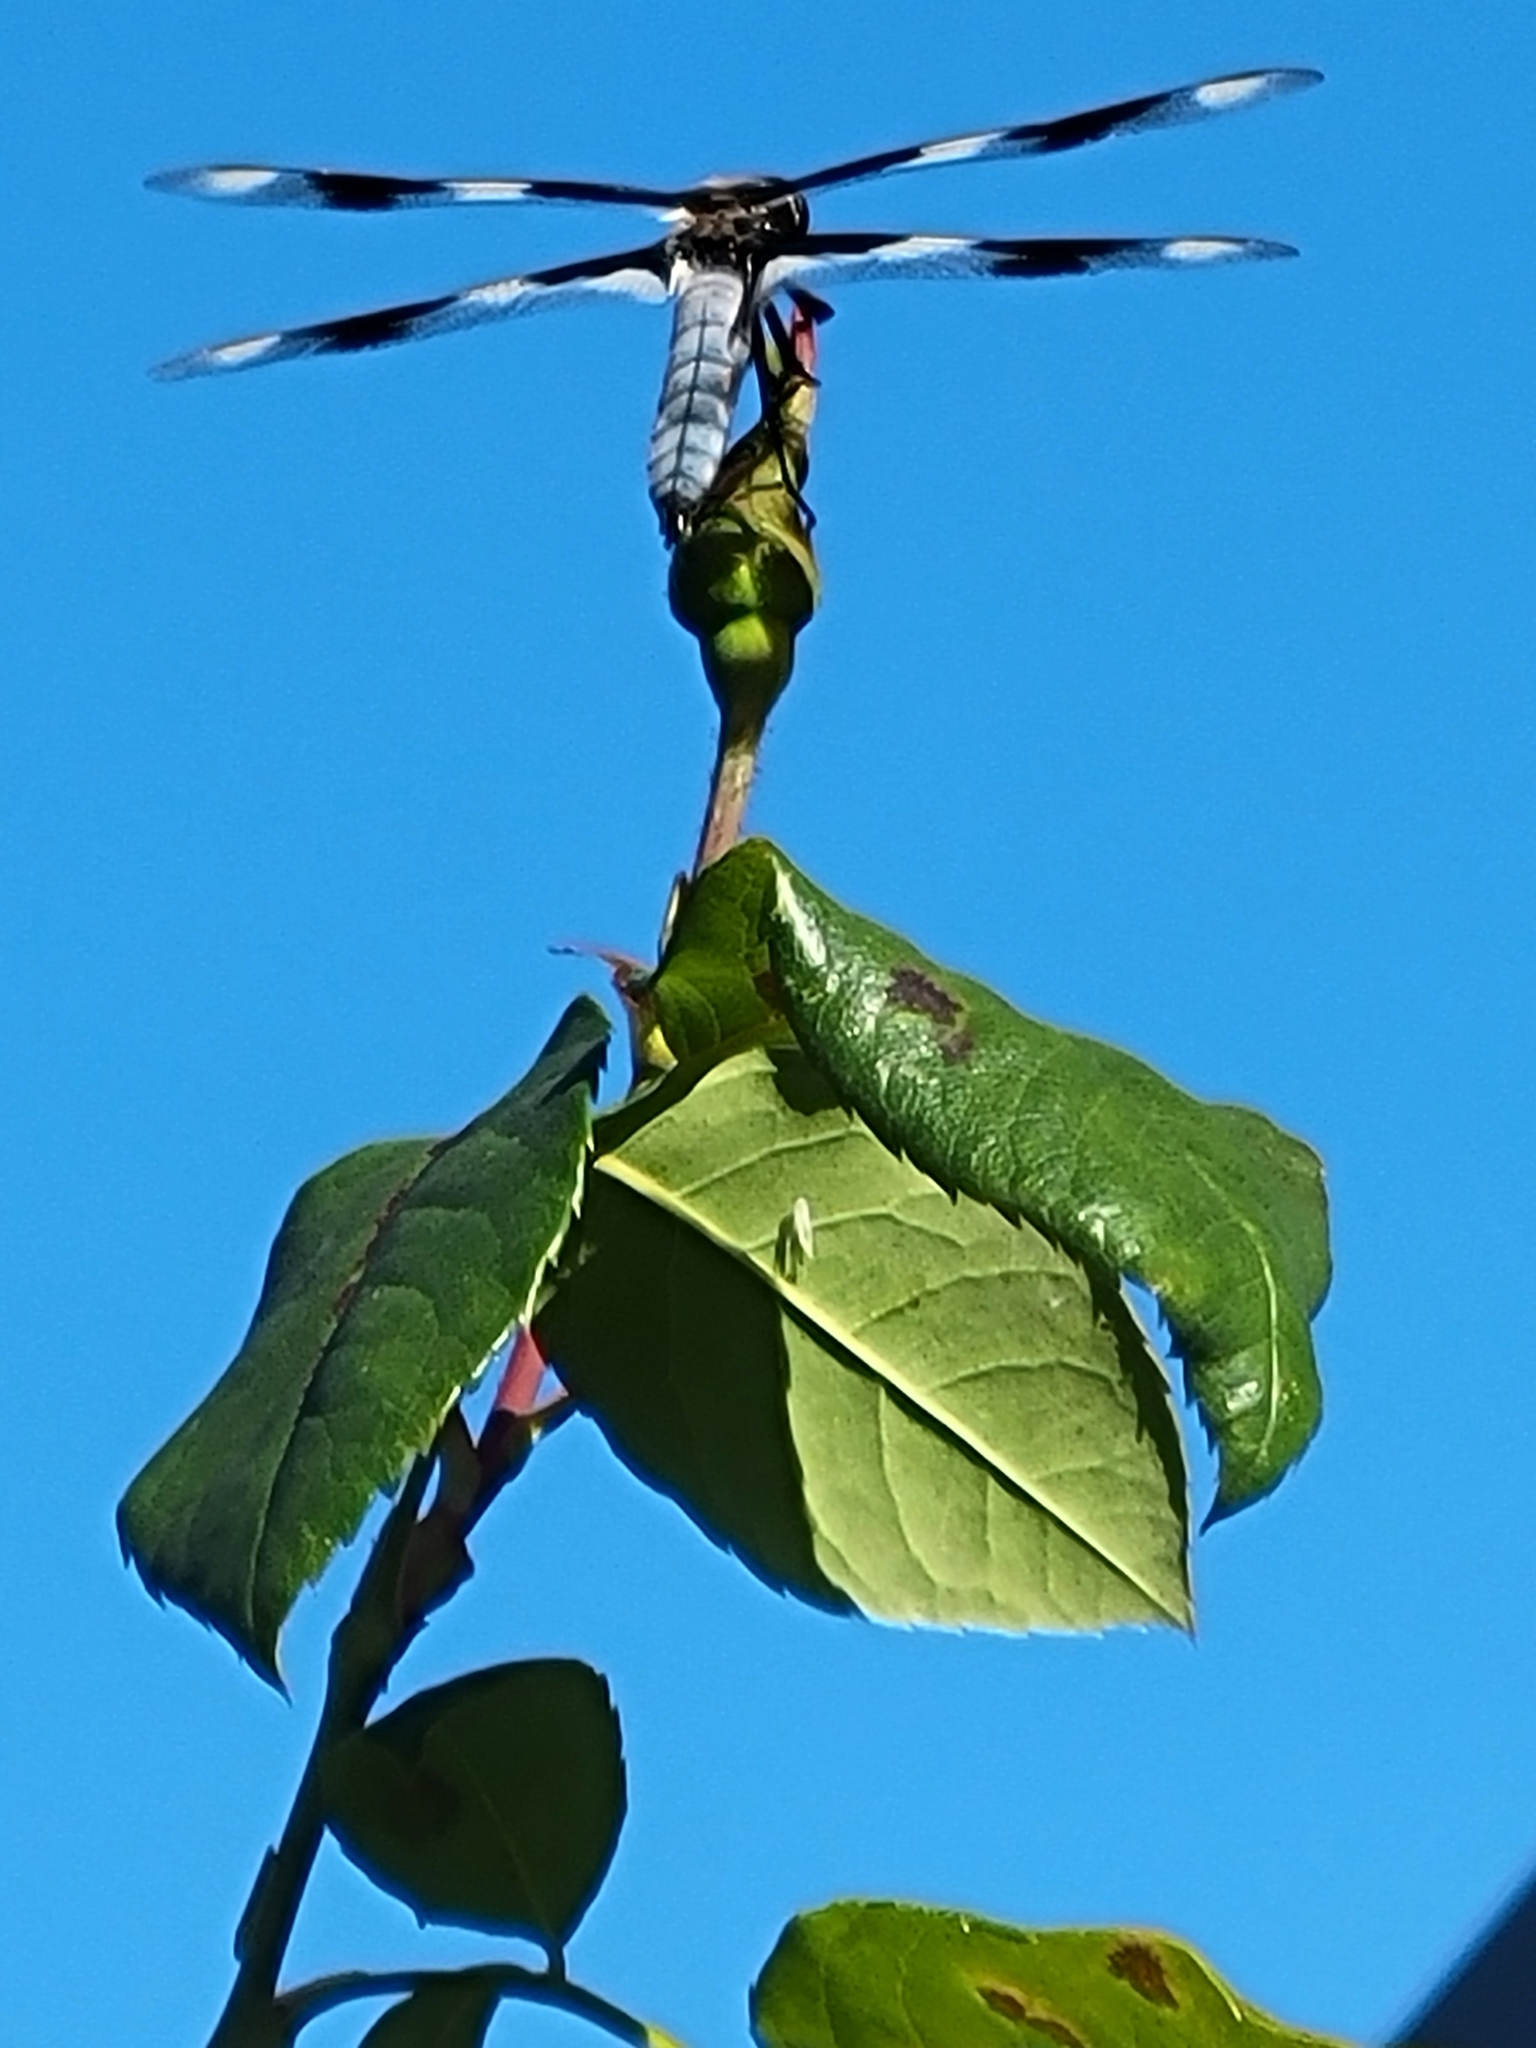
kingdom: Animalia
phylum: Arthropoda
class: Insecta
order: Odonata
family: Libellulidae
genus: Libellula
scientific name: Libellula forensis
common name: Eight-spotted skimmer
